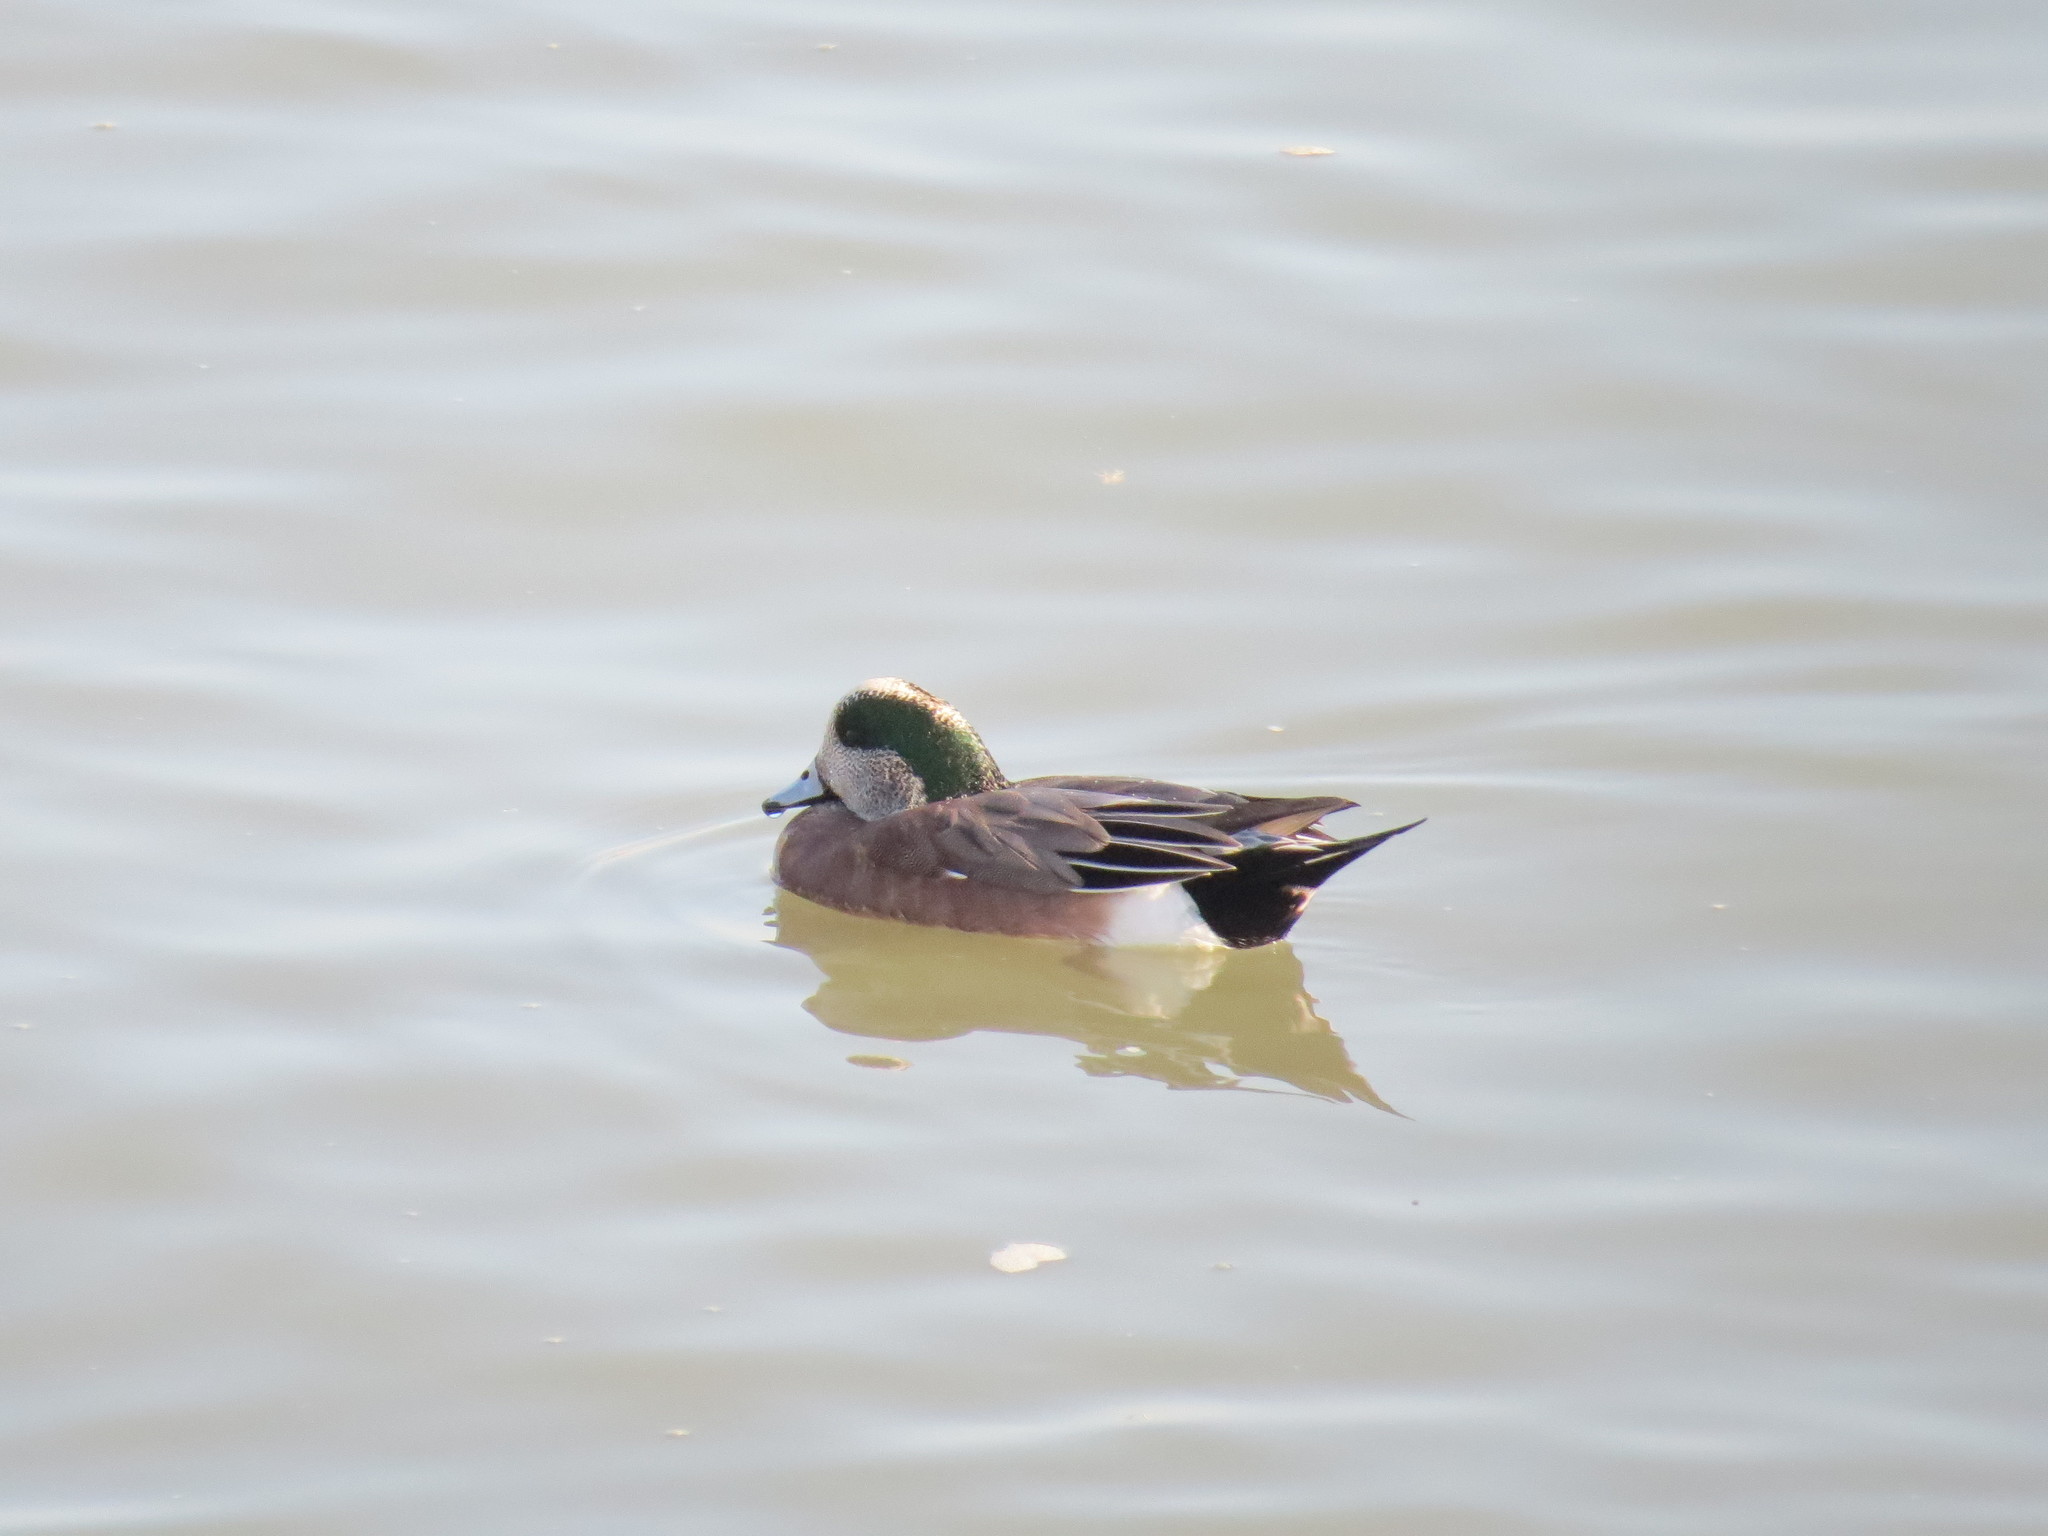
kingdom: Animalia
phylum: Chordata
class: Aves
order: Anseriformes
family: Anatidae
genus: Mareca
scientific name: Mareca americana
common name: American wigeon
